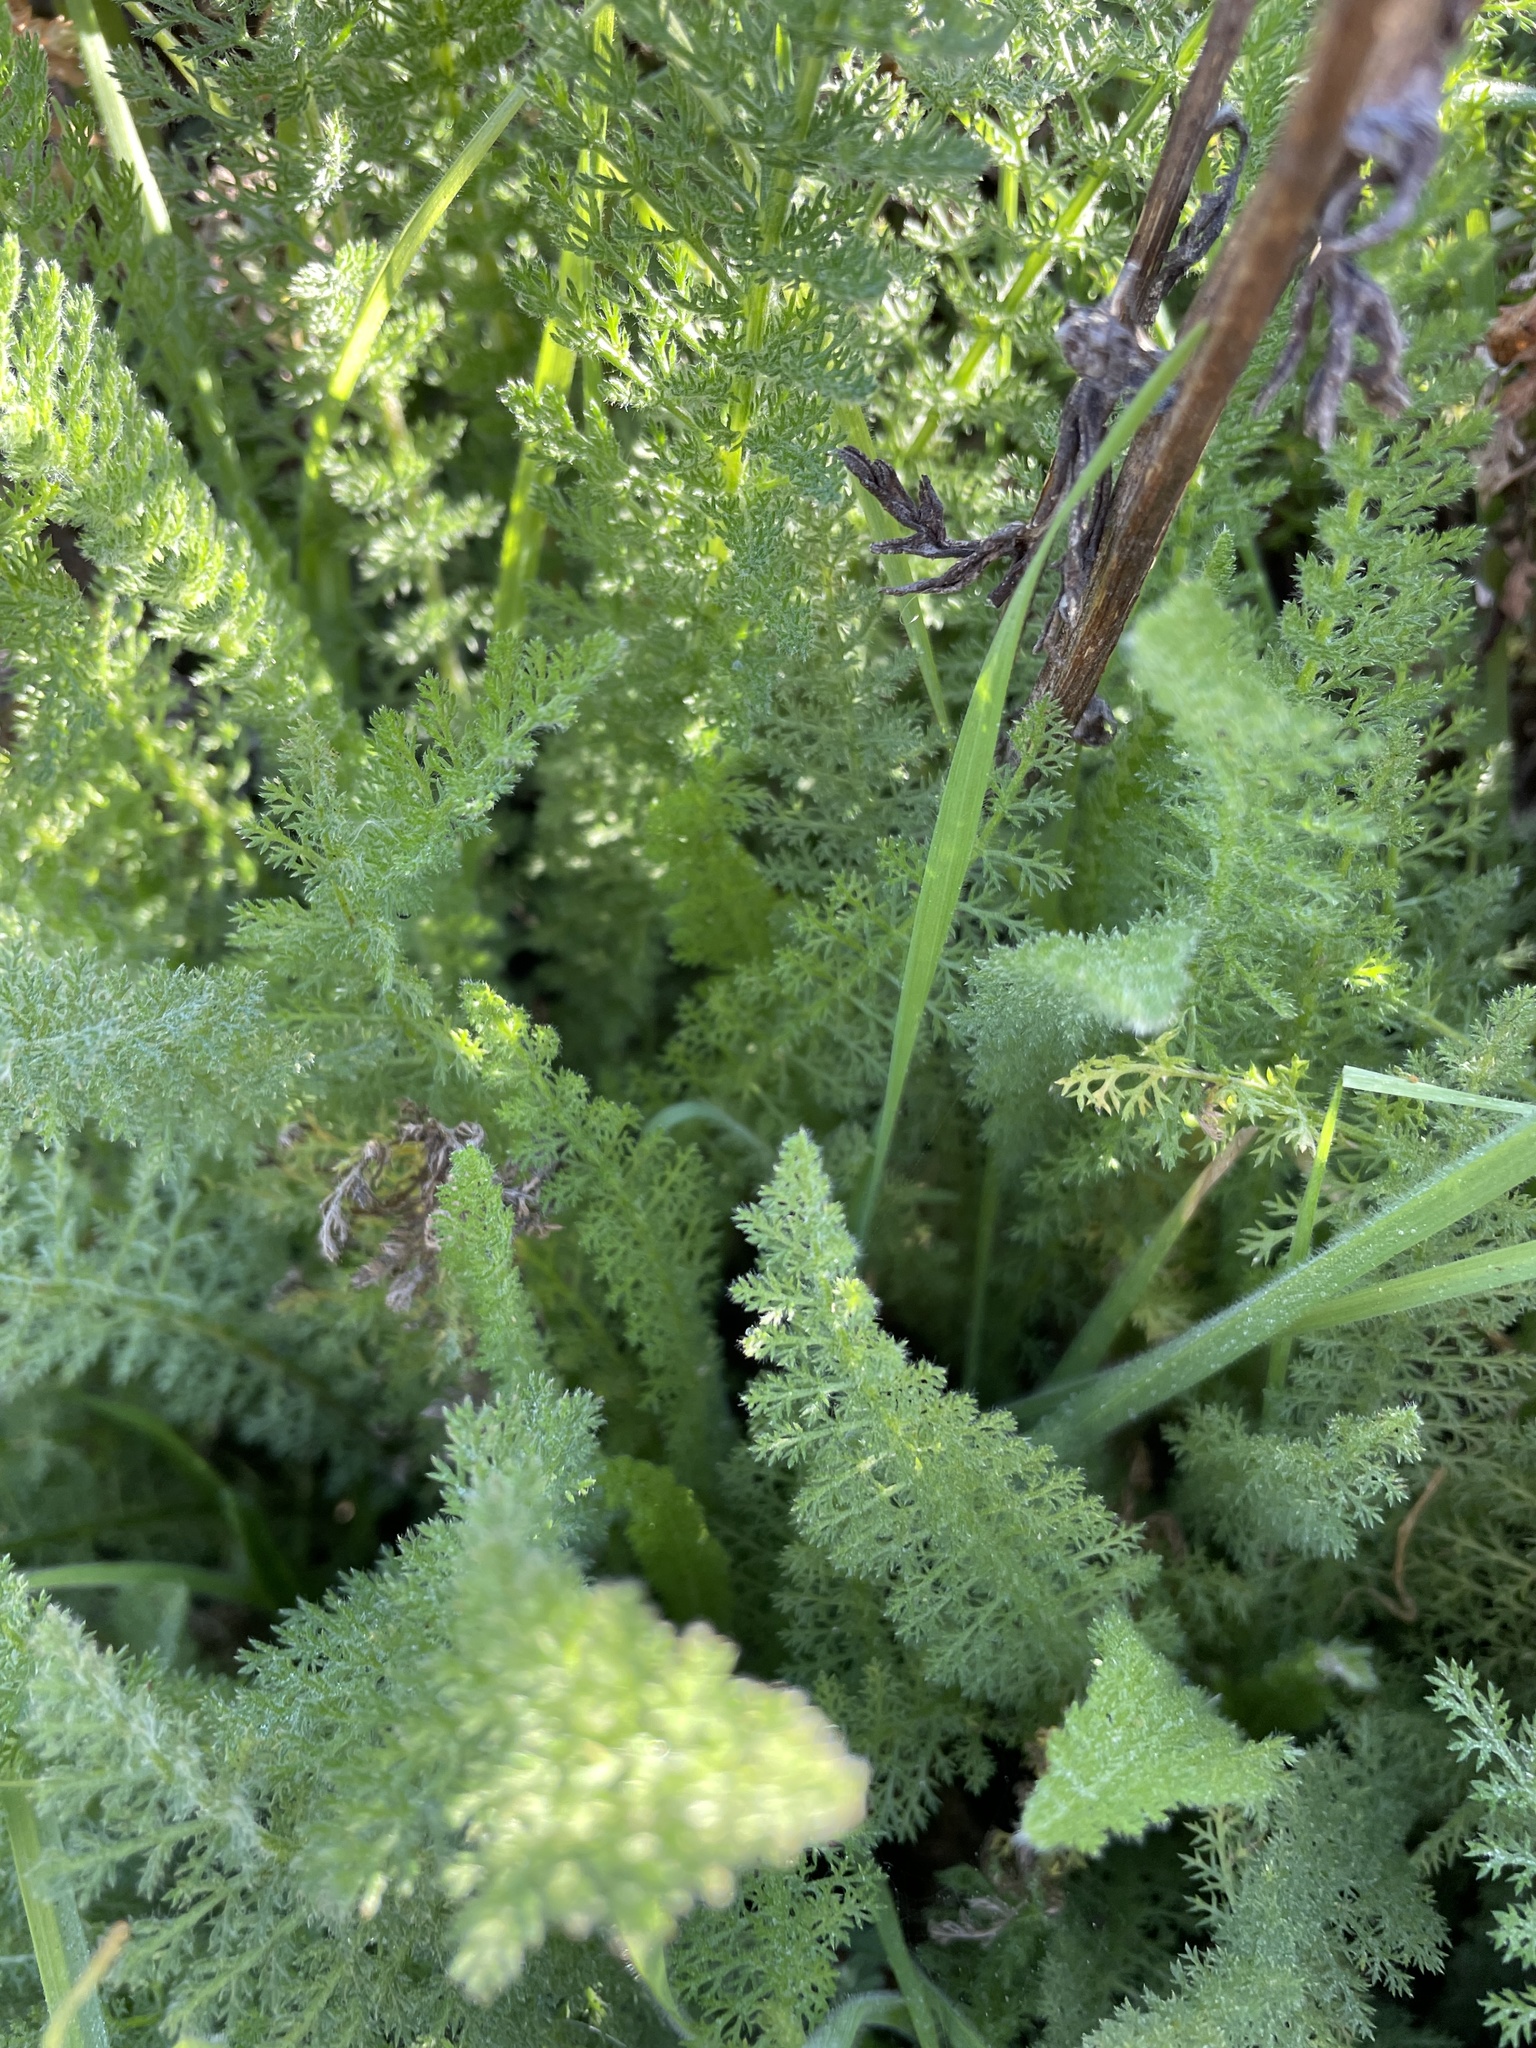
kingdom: Plantae
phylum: Tracheophyta
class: Magnoliopsida
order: Asterales
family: Asteraceae
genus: Achillea
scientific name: Achillea millefolium
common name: Yarrow
